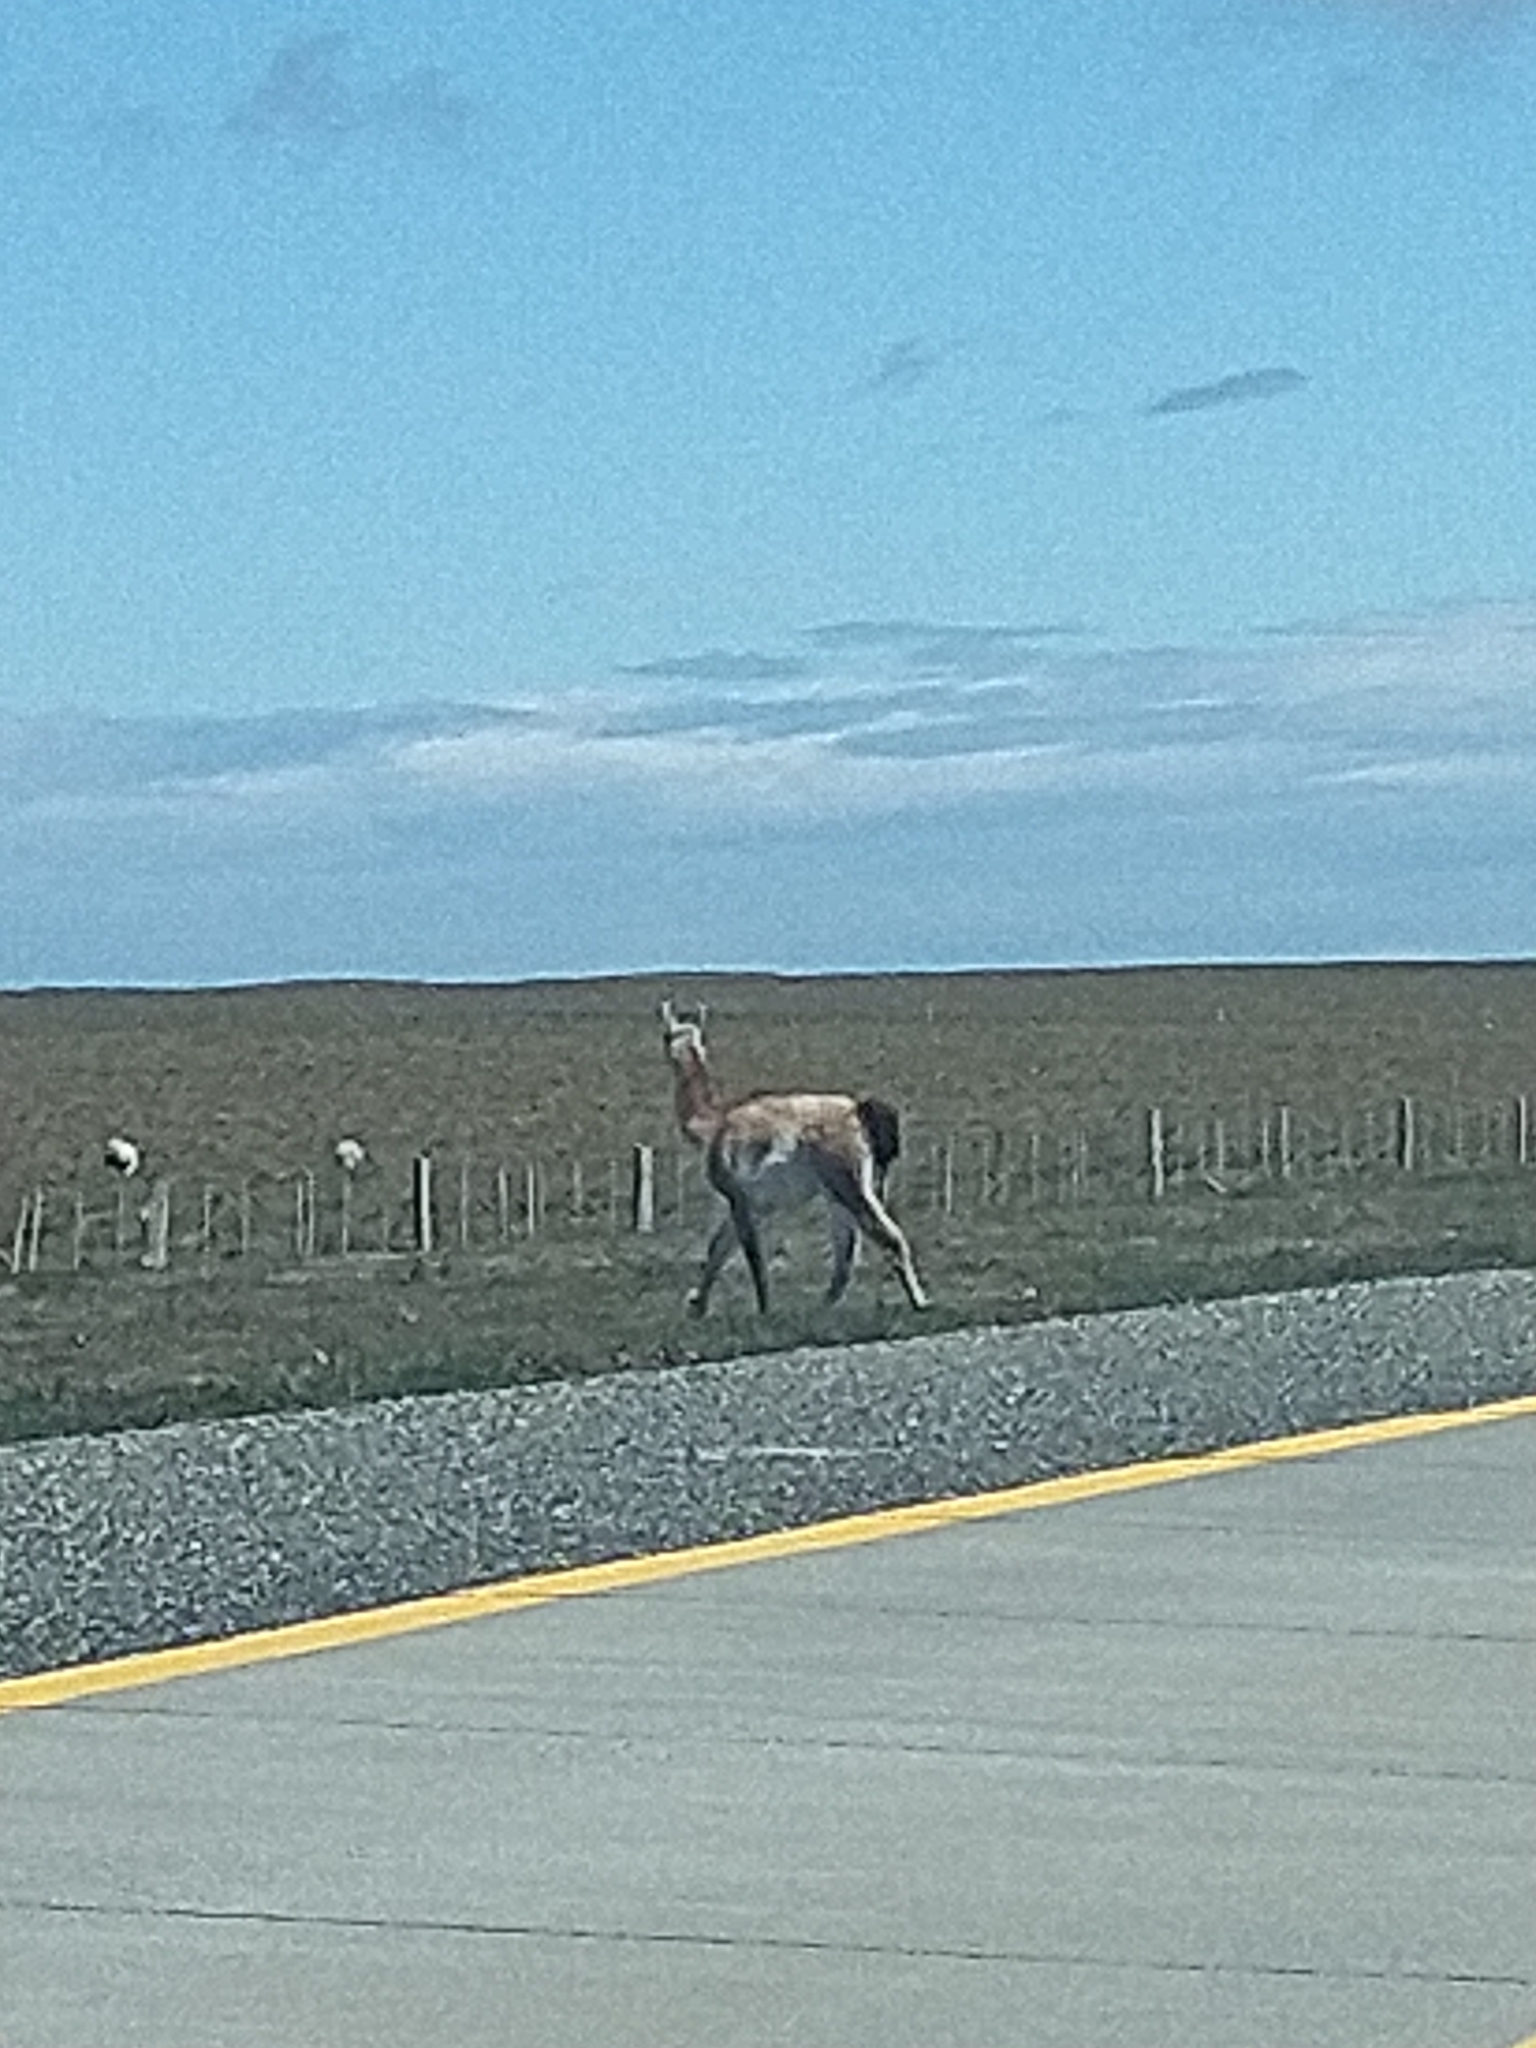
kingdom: Animalia
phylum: Chordata
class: Mammalia
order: Artiodactyla
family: Camelidae
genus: Lama
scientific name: Lama glama
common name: Llama
